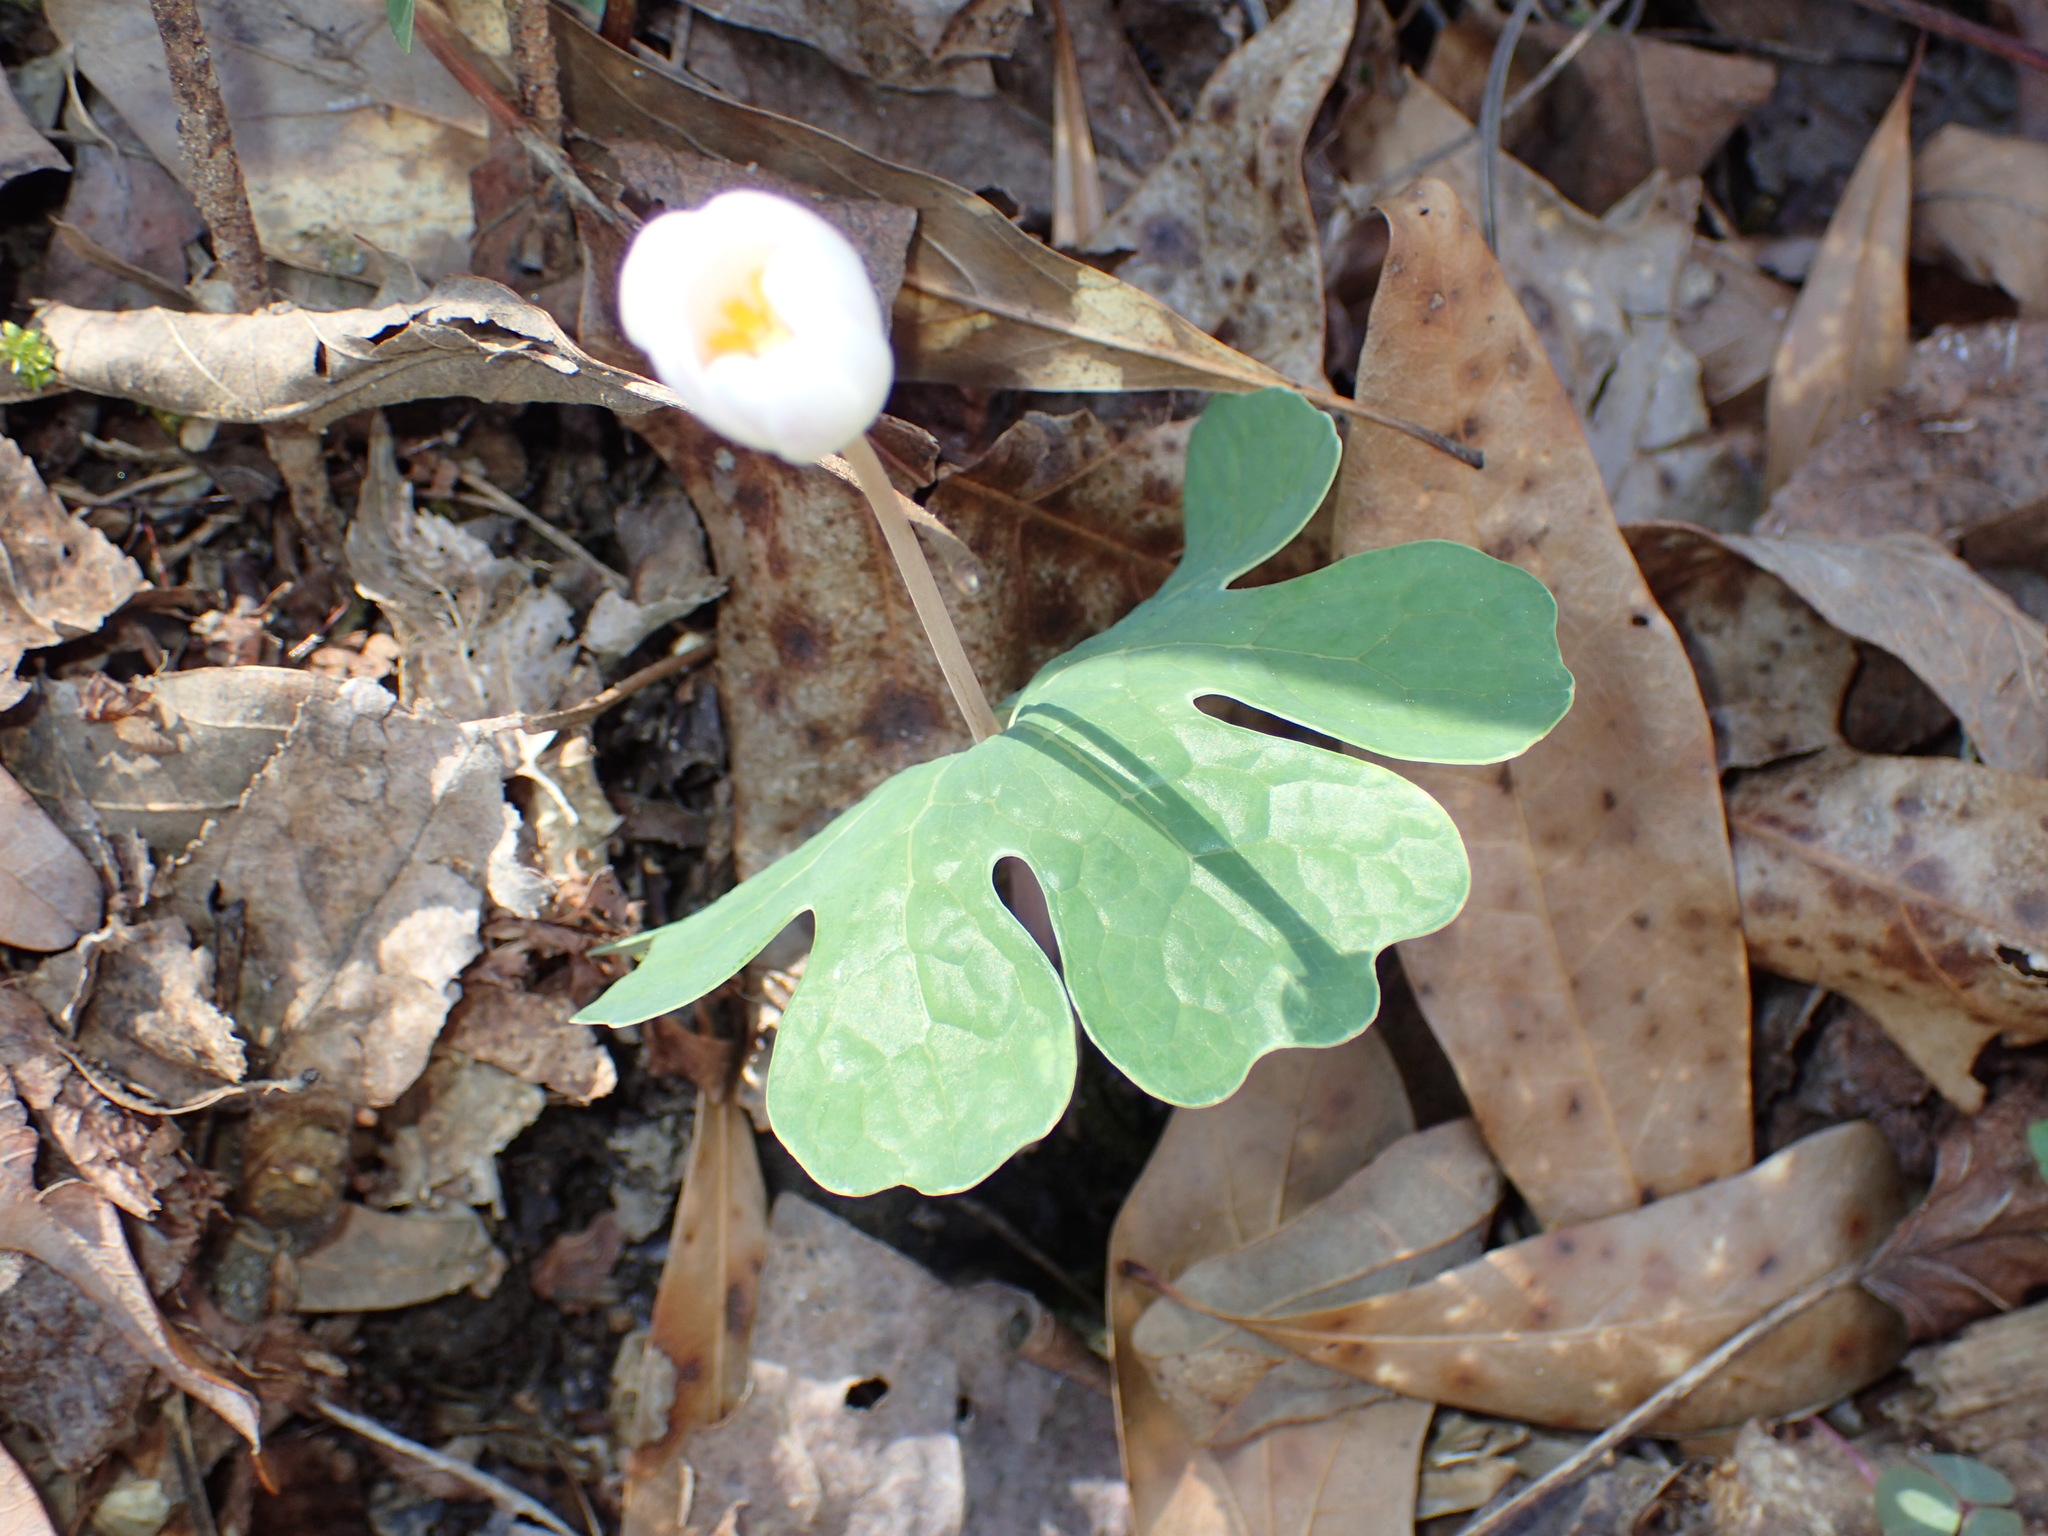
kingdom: Plantae
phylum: Tracheophyta
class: Magnoliopsida
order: Ranunculales
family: Papaveraceae
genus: Sanguinaria
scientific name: Sanguinaria canadensis
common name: Bloodroot
